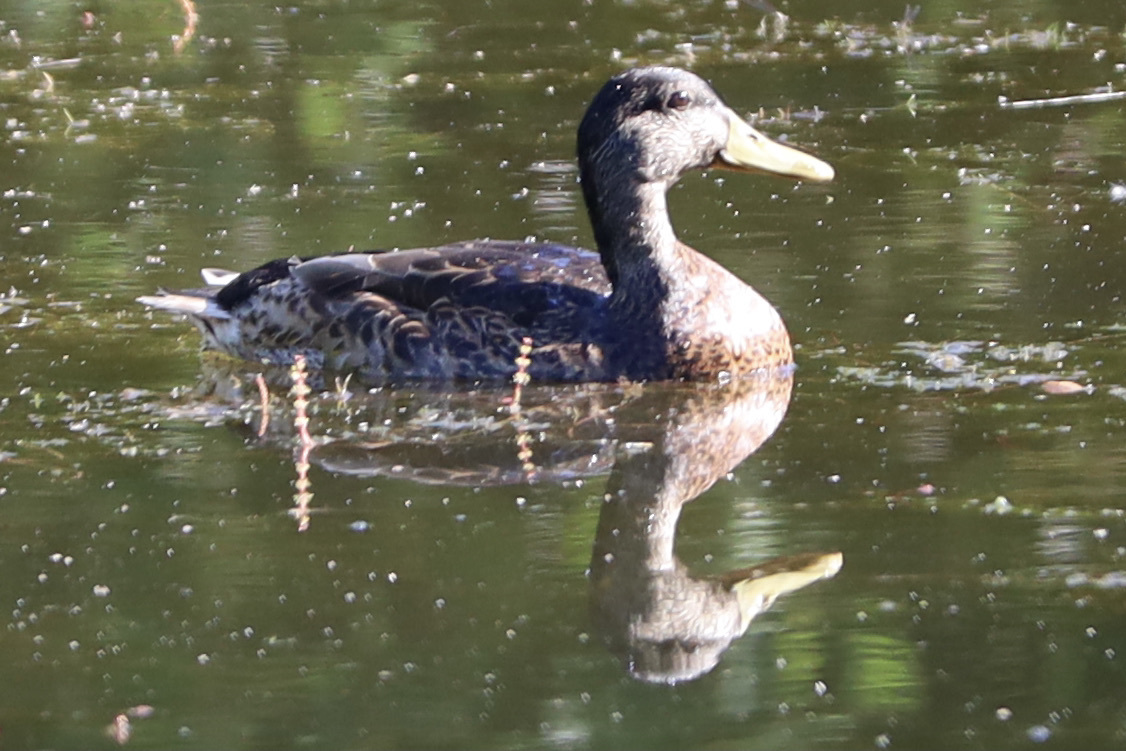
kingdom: Animalia
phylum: Chordata
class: Aves
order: Anseriformes
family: Anatidae
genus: Anas
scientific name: Anas platyrhynchos
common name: Mallard
